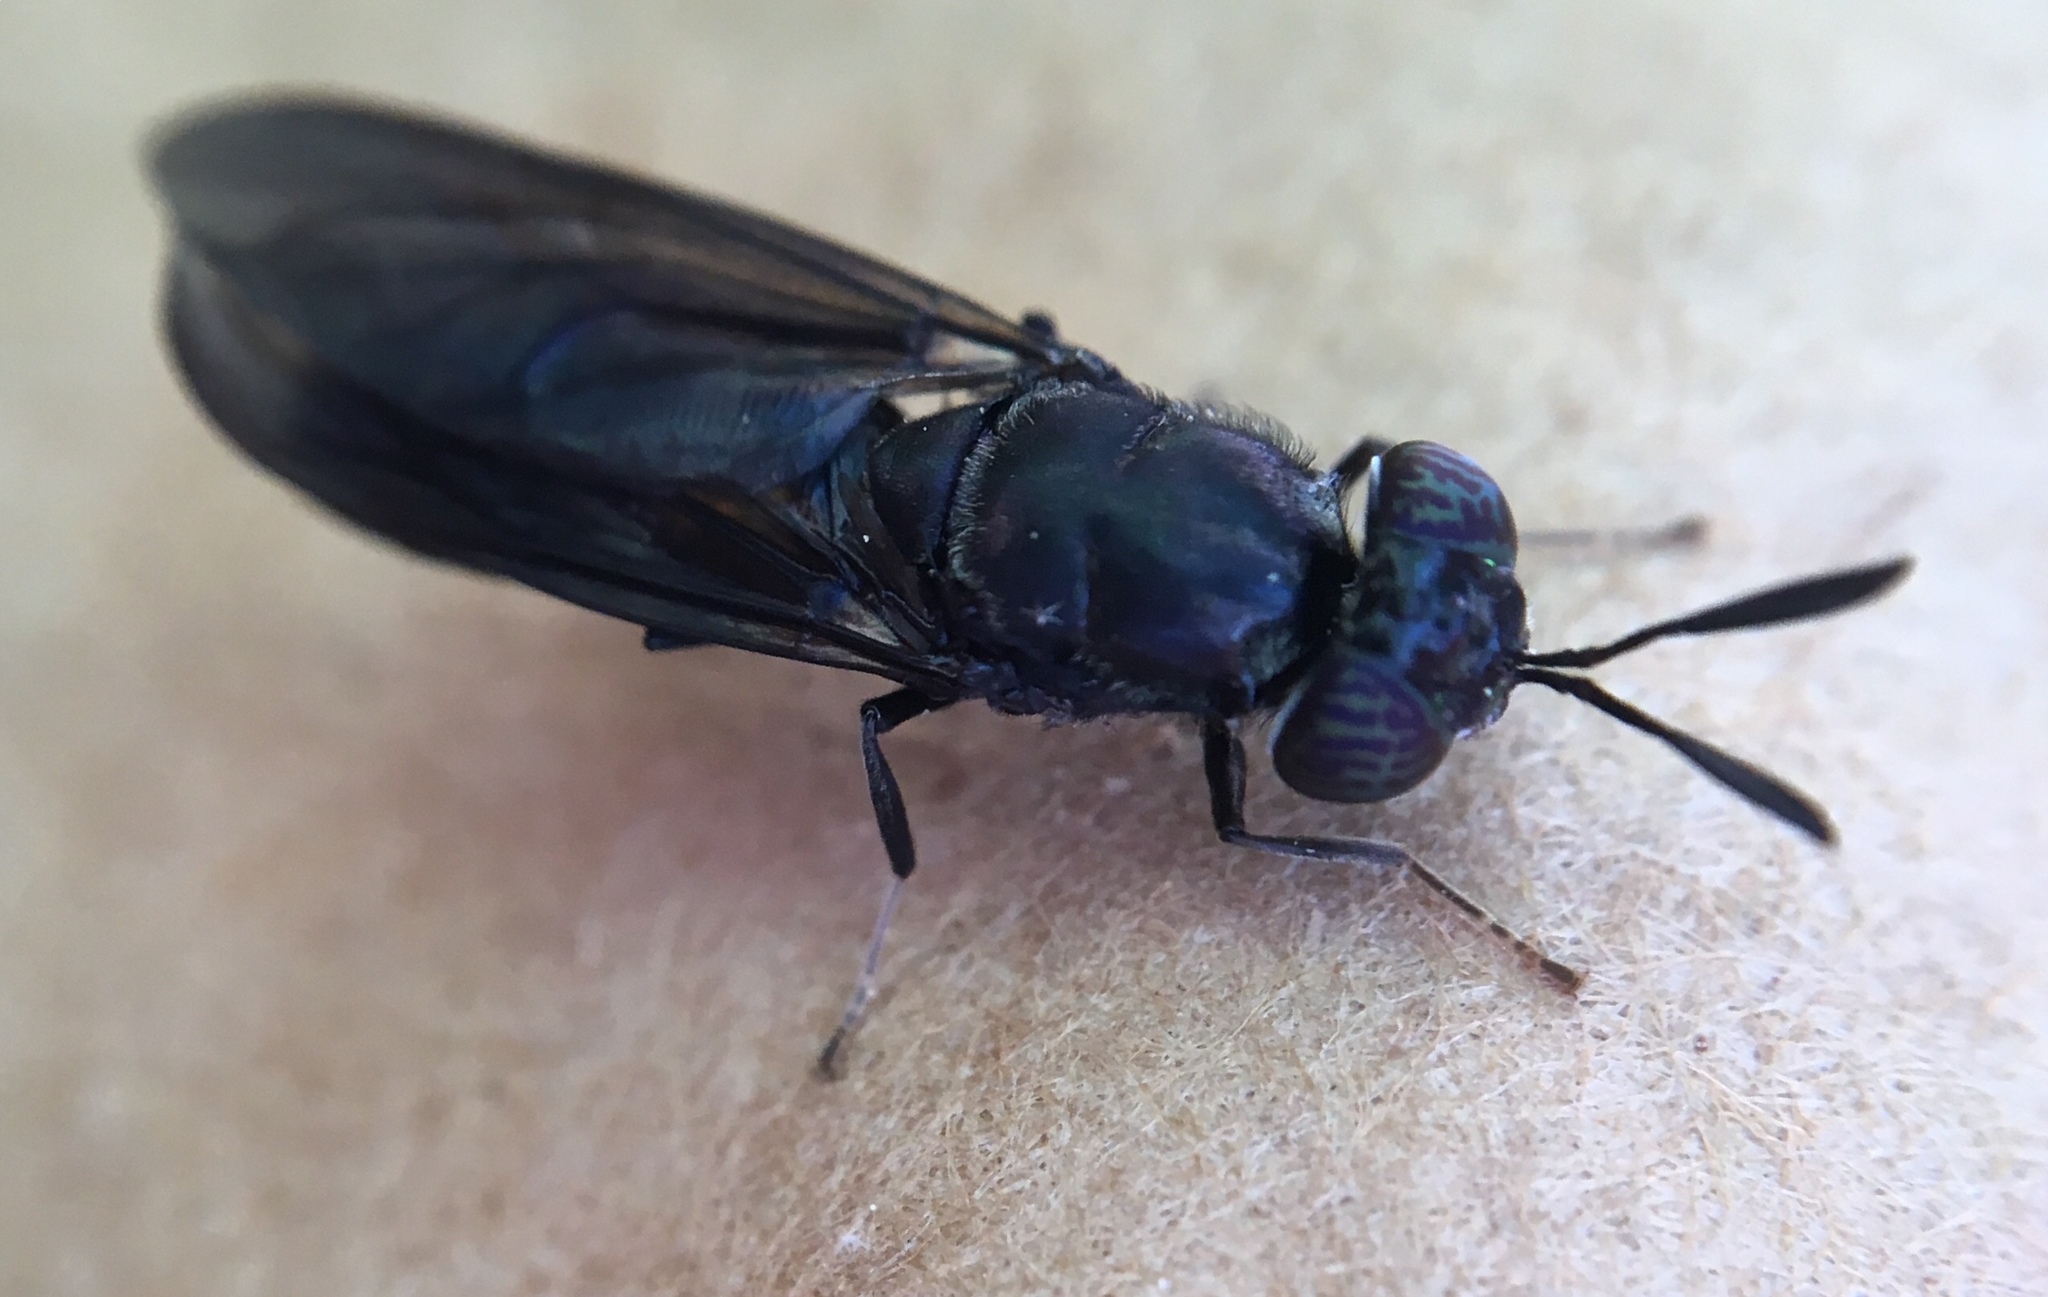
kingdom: Animalia
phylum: Arthropoda
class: Insecta
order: Diptera
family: Stratiomyidae
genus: Hermetia
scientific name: Hermetia illucens
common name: Black soldier fly
